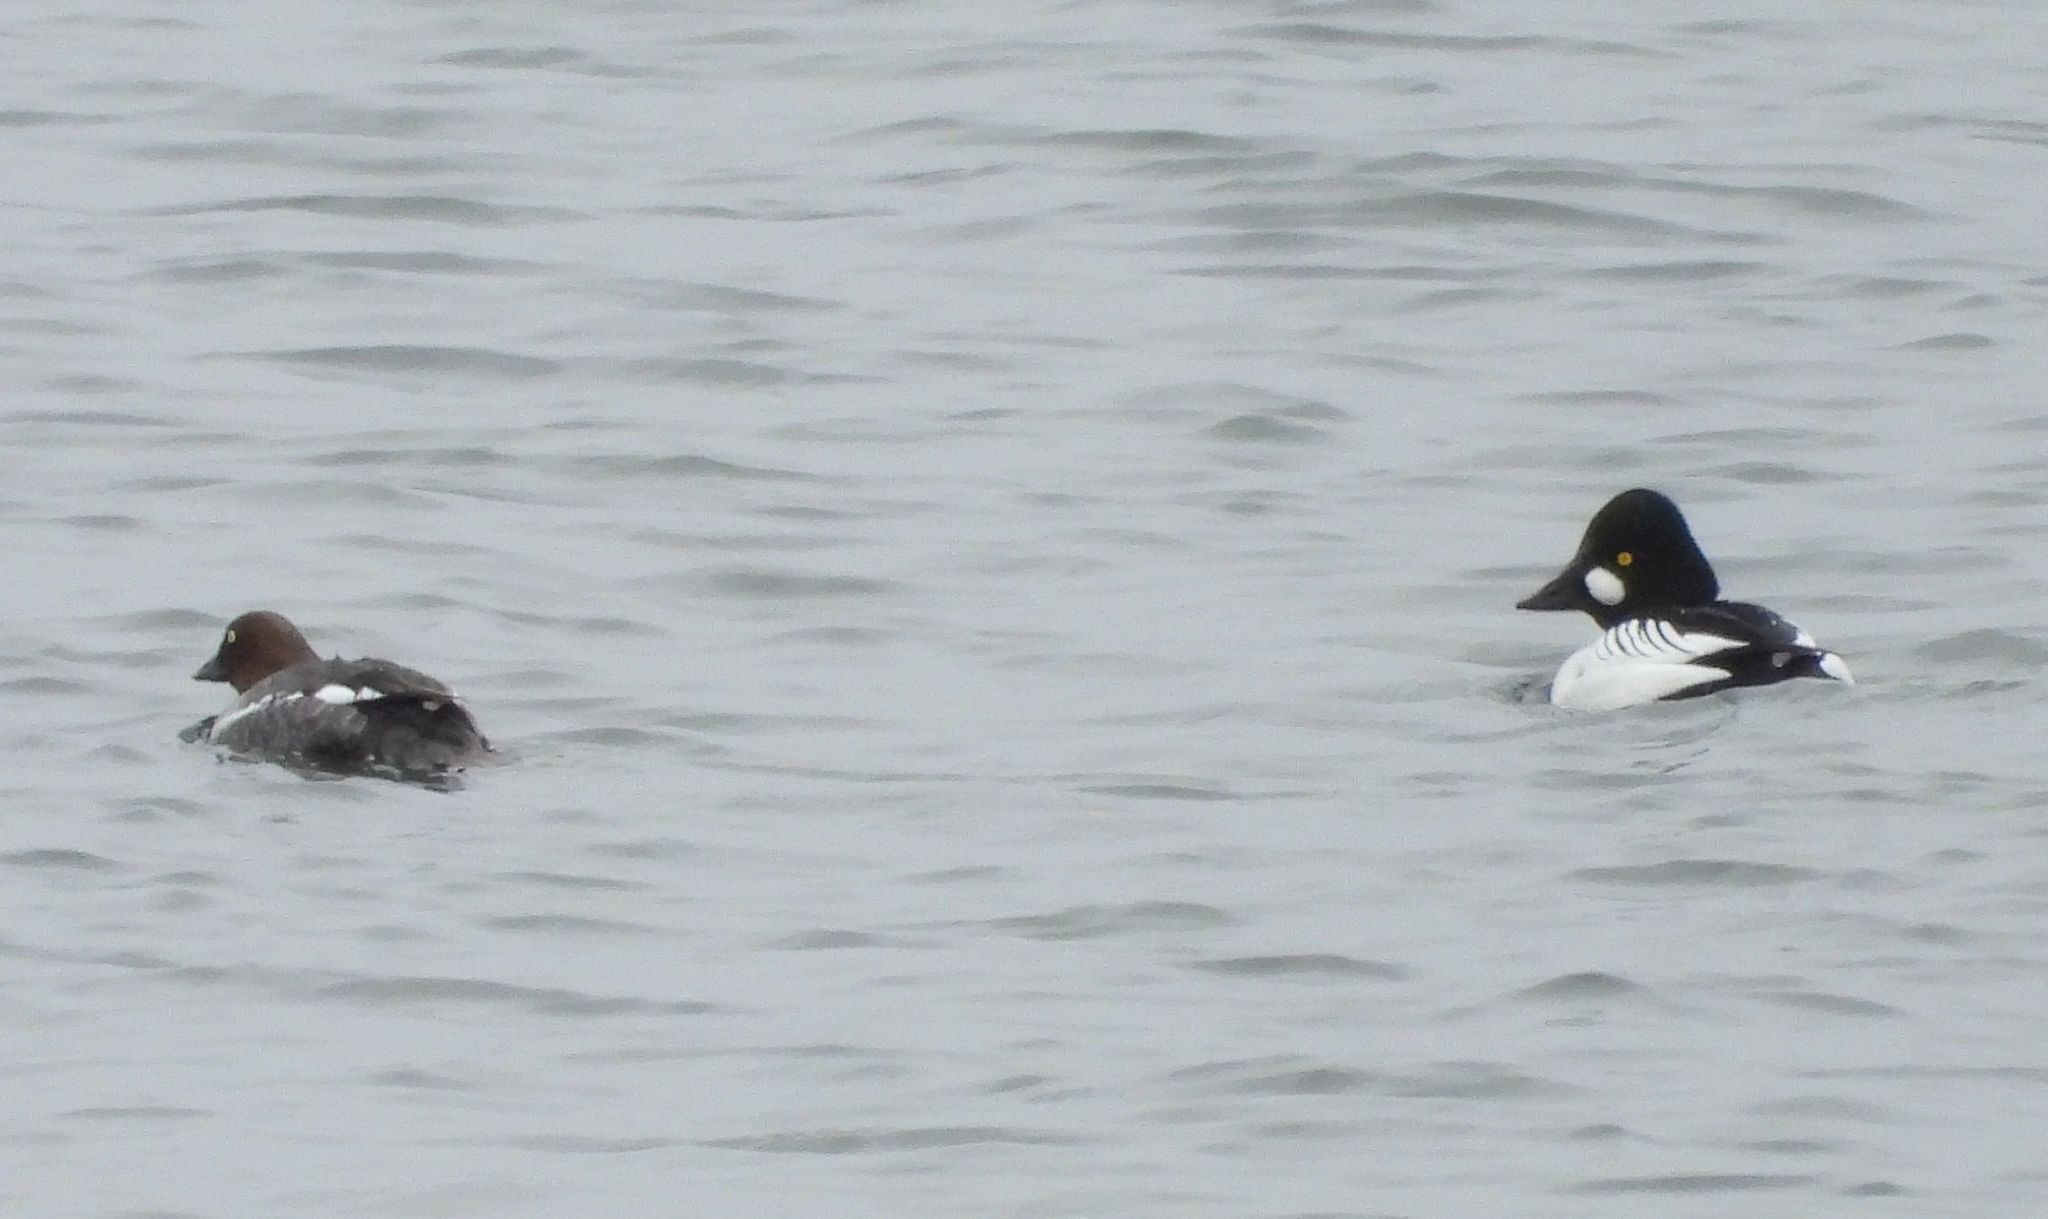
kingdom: Animalia
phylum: Chordata
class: Aves
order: Anseriformes
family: Anatidae
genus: Bucephala
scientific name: Bucephala clangula
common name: Common goldeneye
